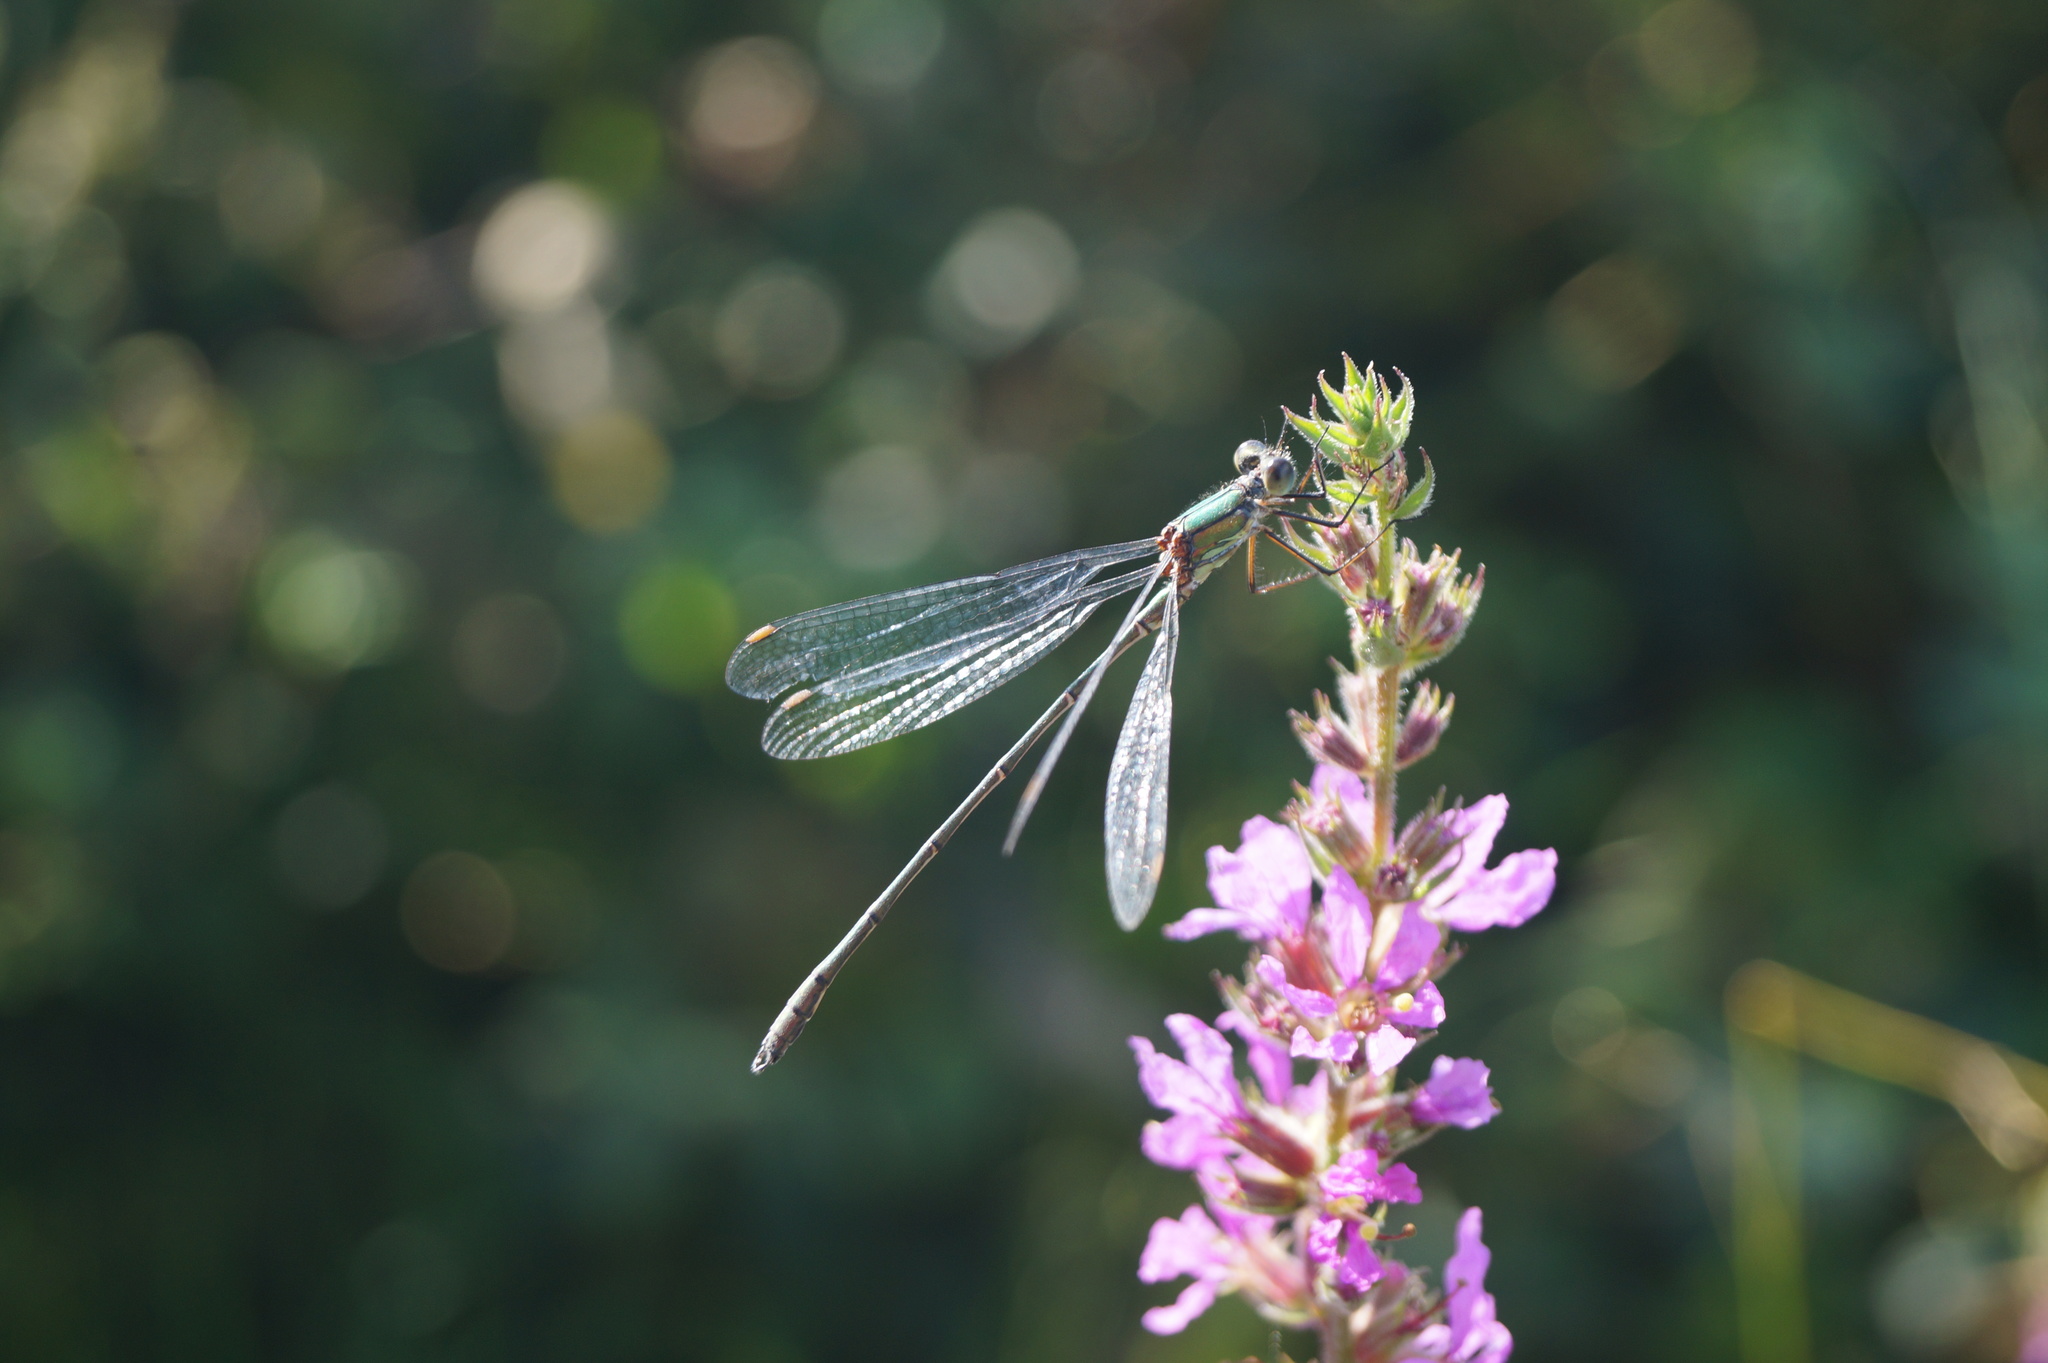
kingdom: Animalia
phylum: Arthropoda
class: Insecta
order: Odonata
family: Lestidae
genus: Chalcolestes
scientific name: Chalcolestes viridis
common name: Green emerald damselfly
